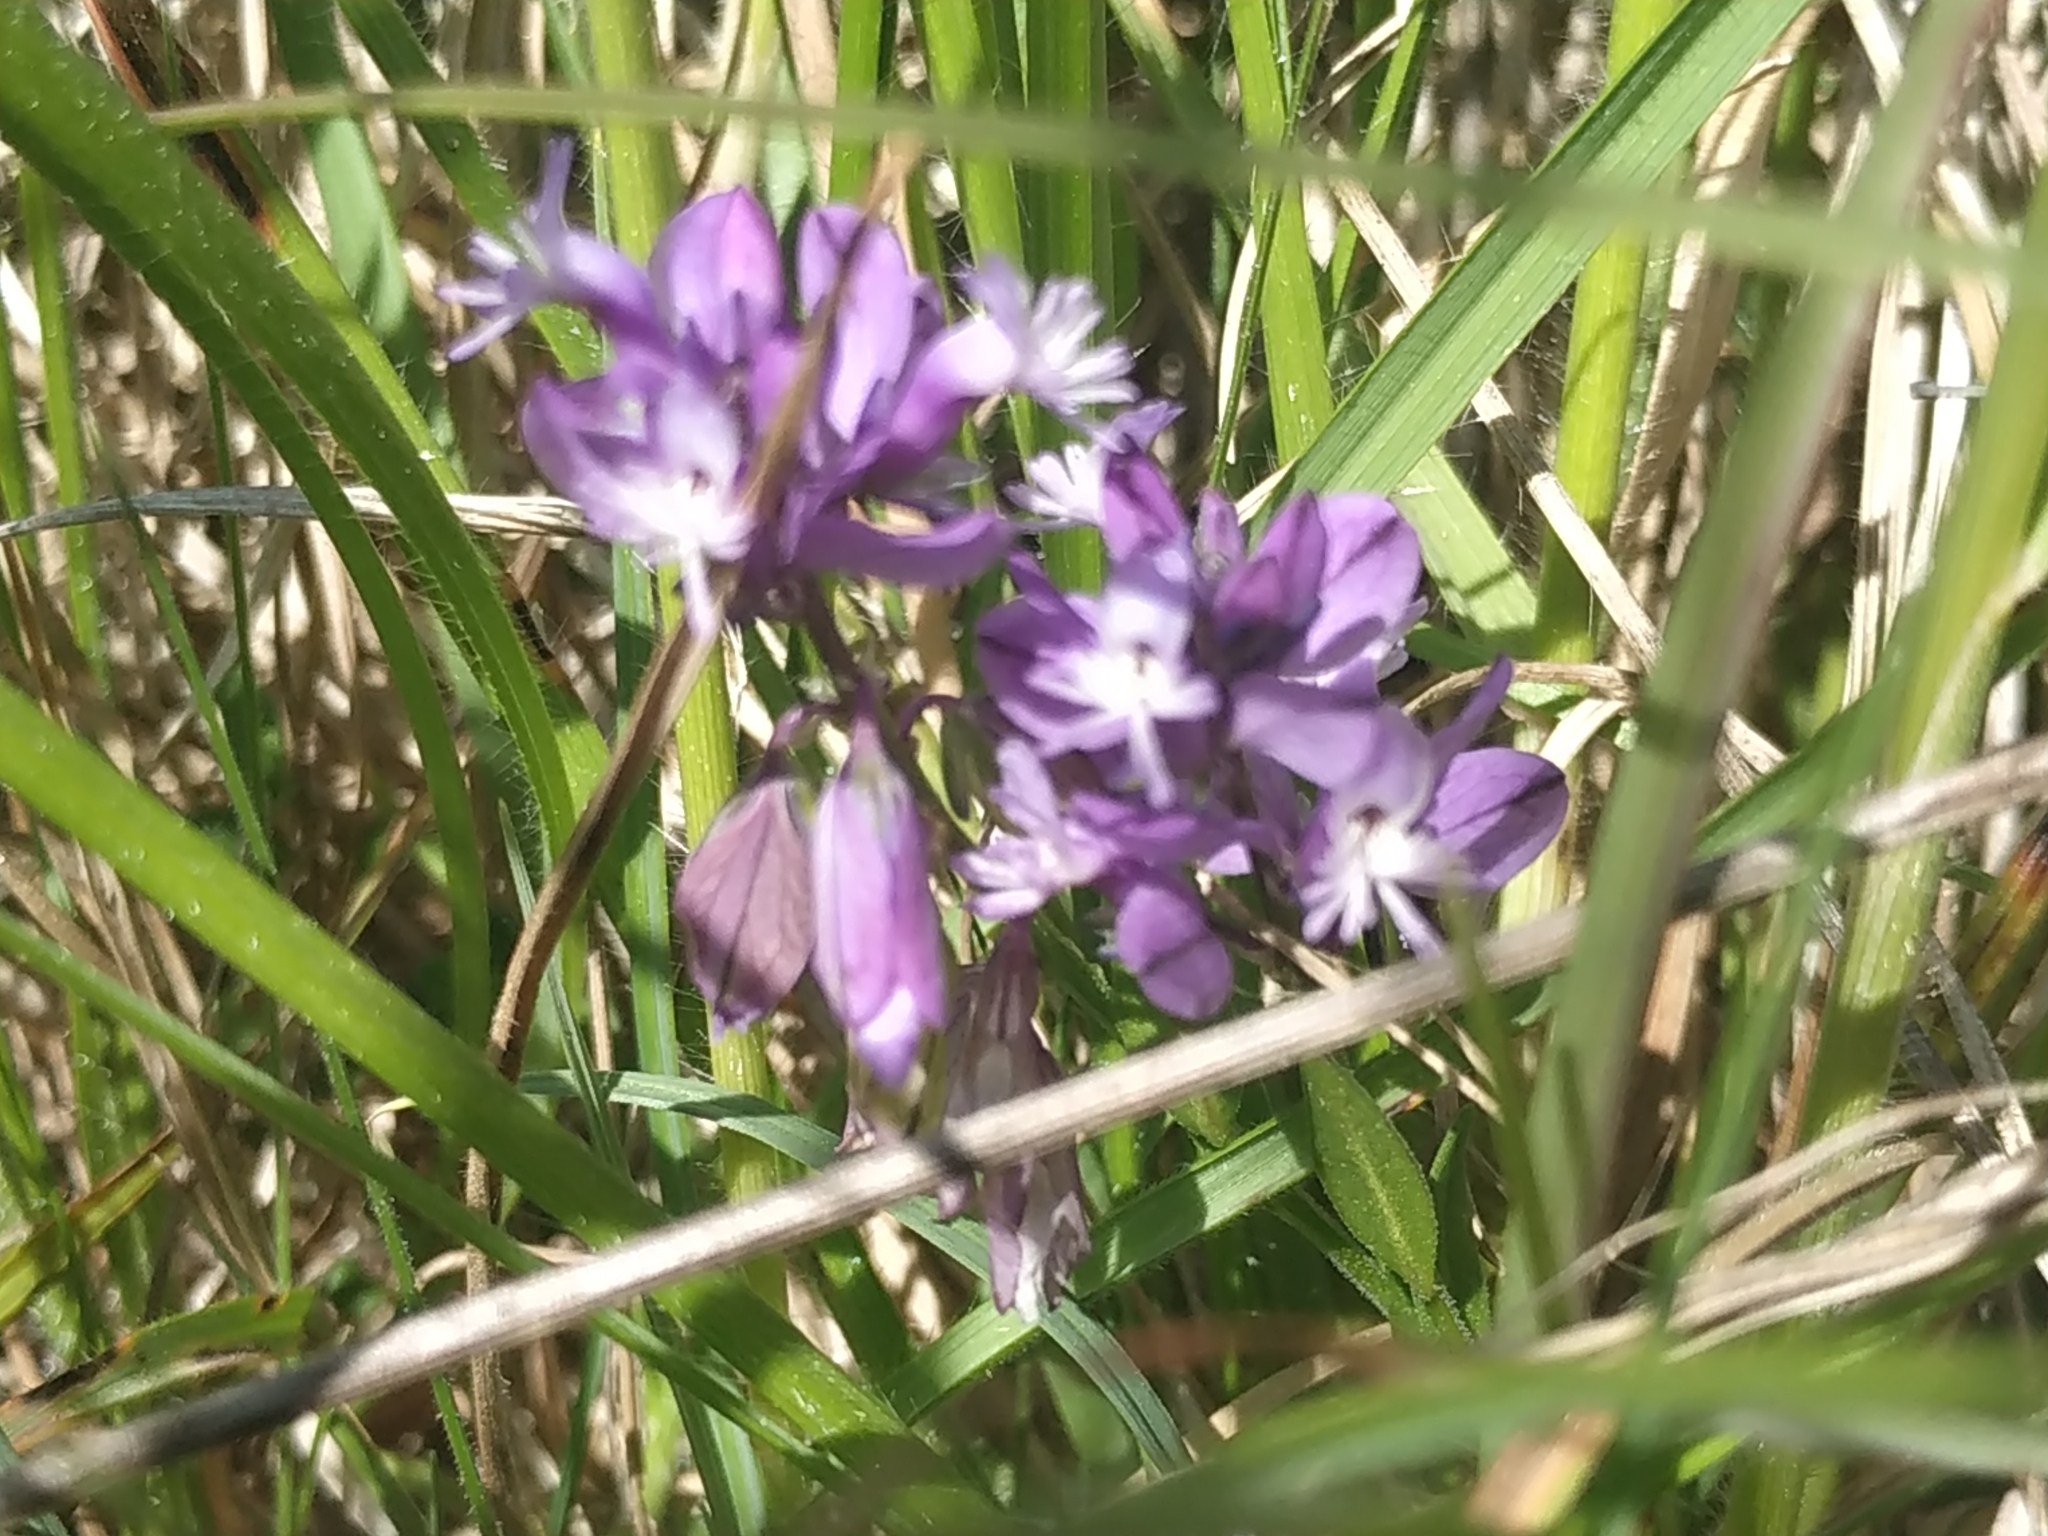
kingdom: Plantae
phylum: Tracheophyta
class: Magnoliopsida
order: Fabales
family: Polygalaceae
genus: Polygala
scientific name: Polygala vulgaris
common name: Common milkwort
